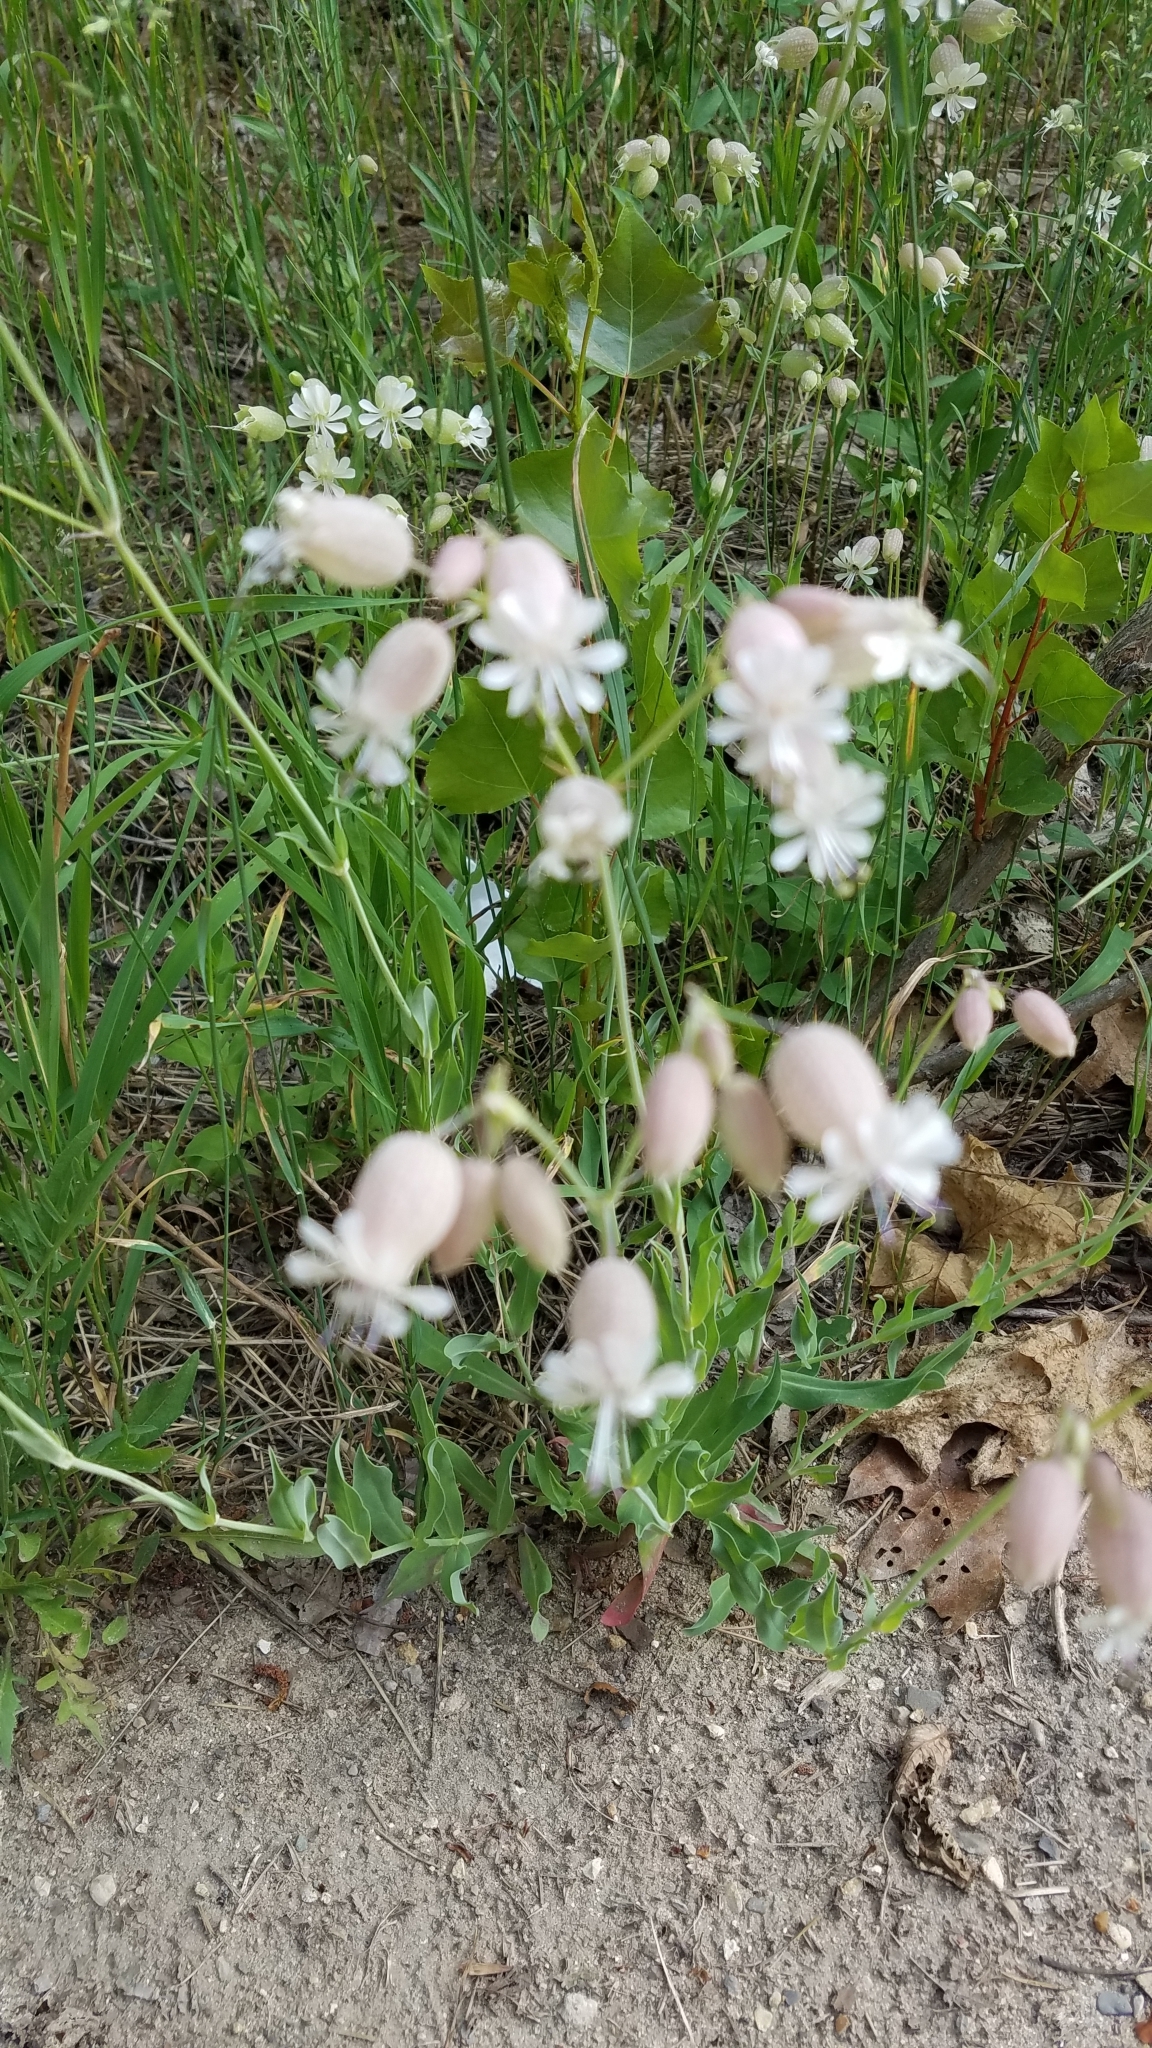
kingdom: Plantae
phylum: Tracheophyta
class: Magnoliopsida
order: Caryophyllales
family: Caryophyllaceae
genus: Silene
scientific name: Silene vulgaris
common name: Bladder campion
